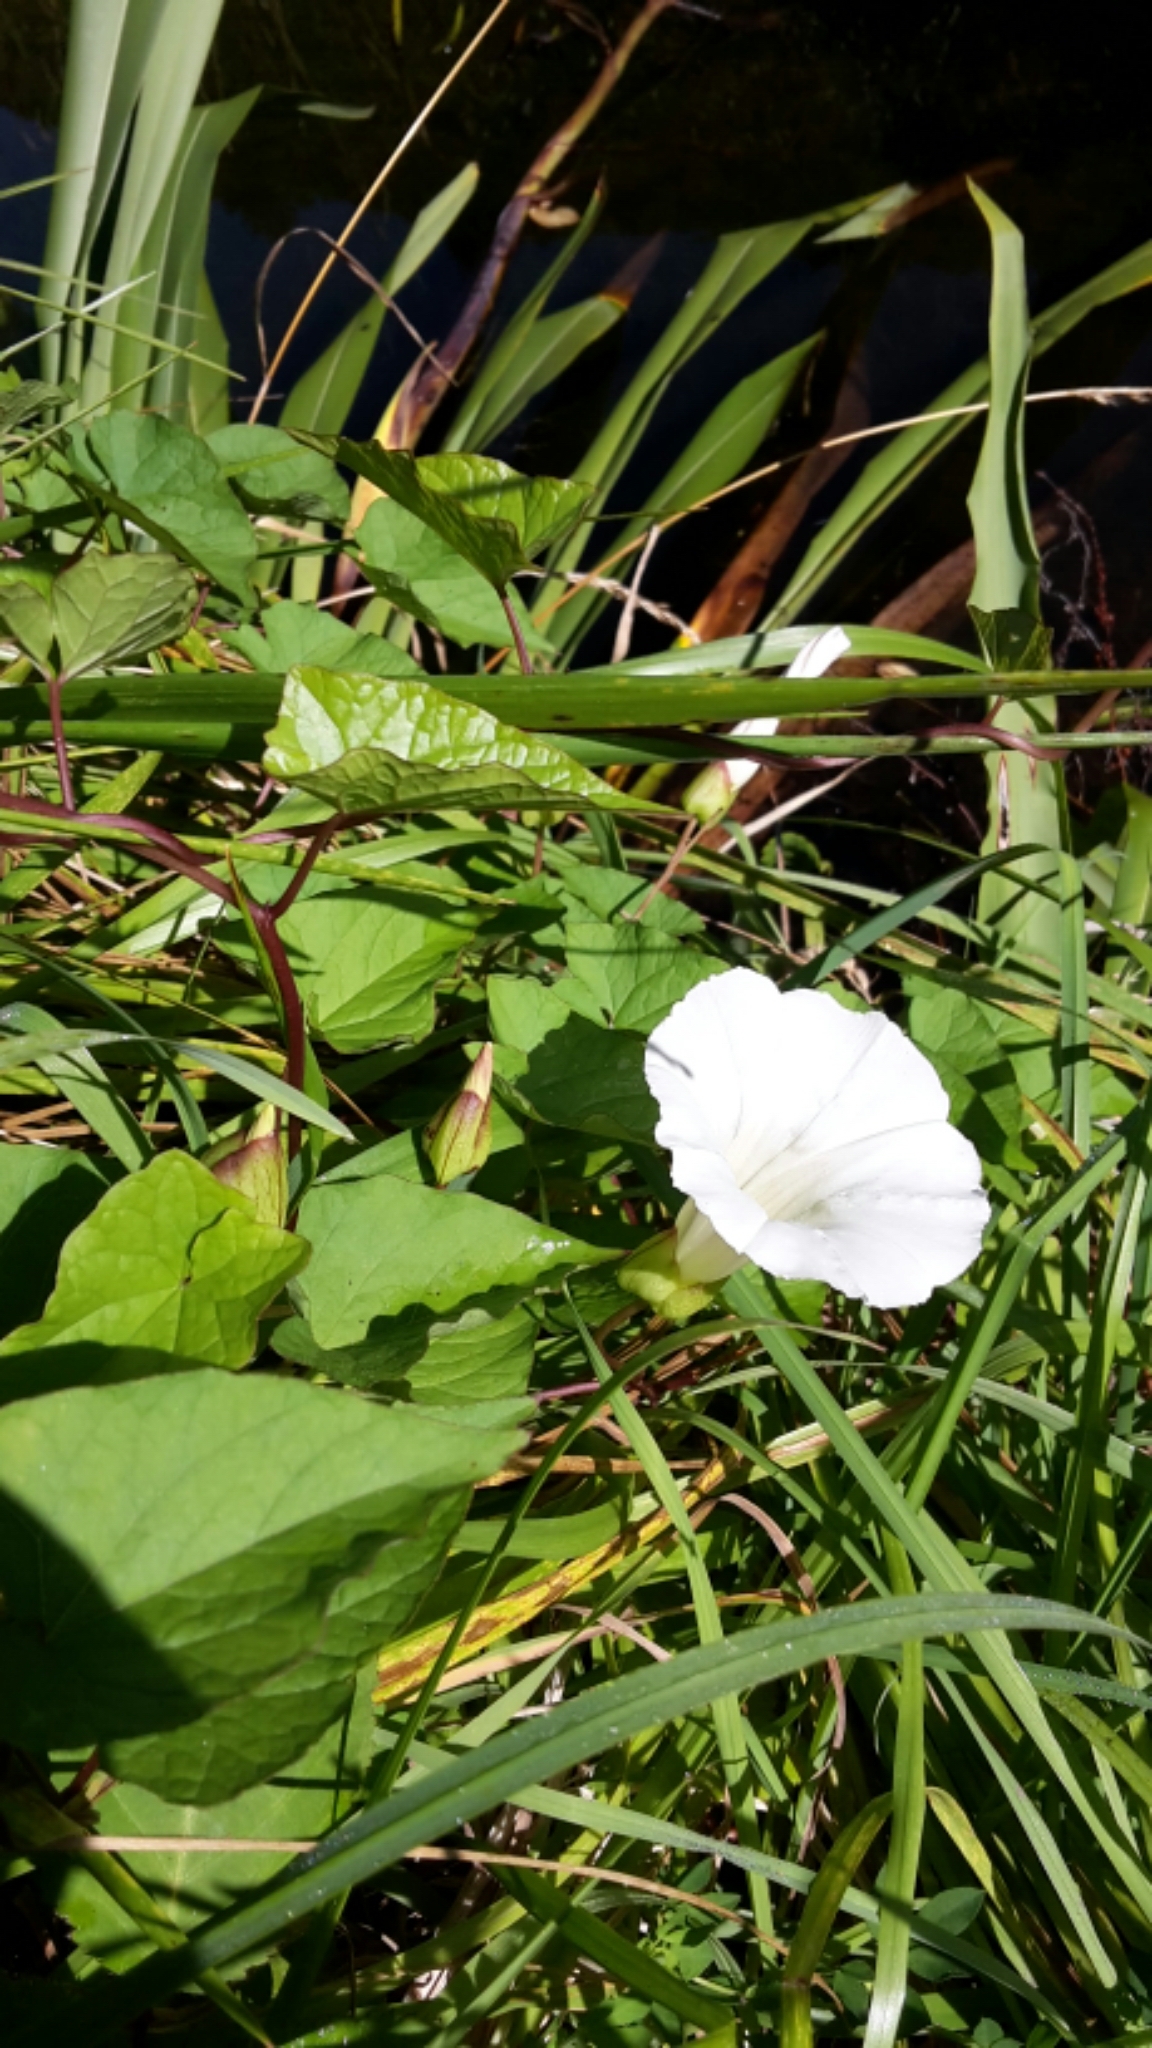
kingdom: Plantae
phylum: Tracheophyta
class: Magnoliopsida
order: Solanales
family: Convolvulaceae
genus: Calystegia
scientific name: Calystegia silvatica
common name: Large bindweed
